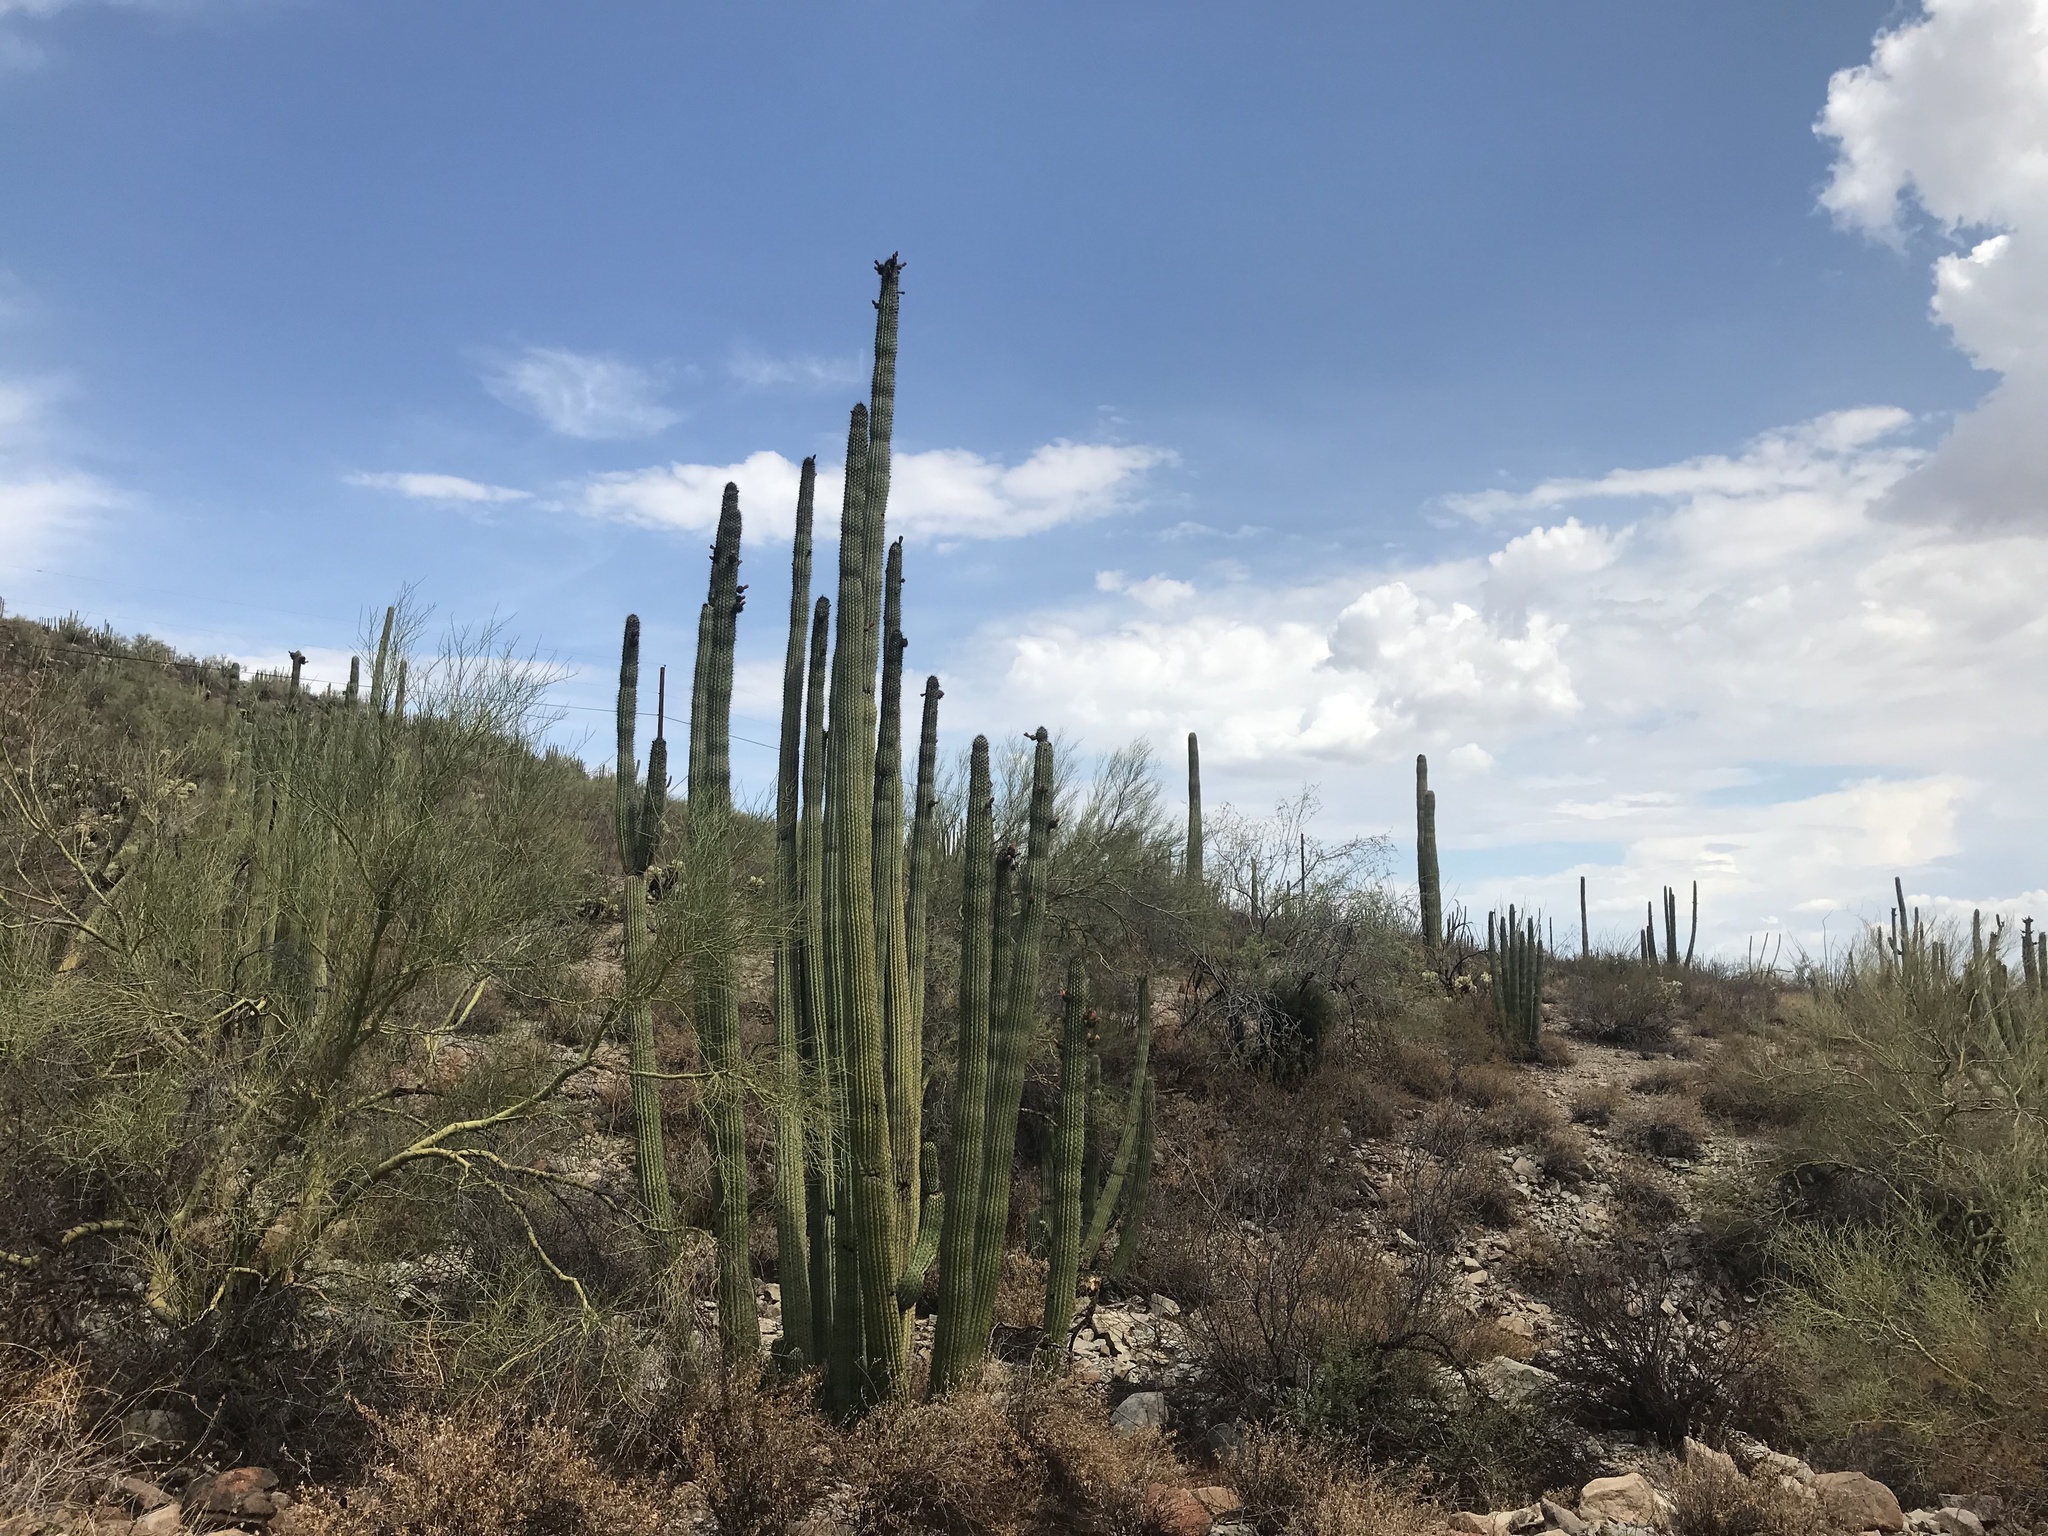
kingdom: Plantae
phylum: Tracheophyta
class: Magnoliopsida
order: Caryophyllales
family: Cactaceae
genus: Stenocereus
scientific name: Stenocereus thurberi
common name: Organ pipe cactus
